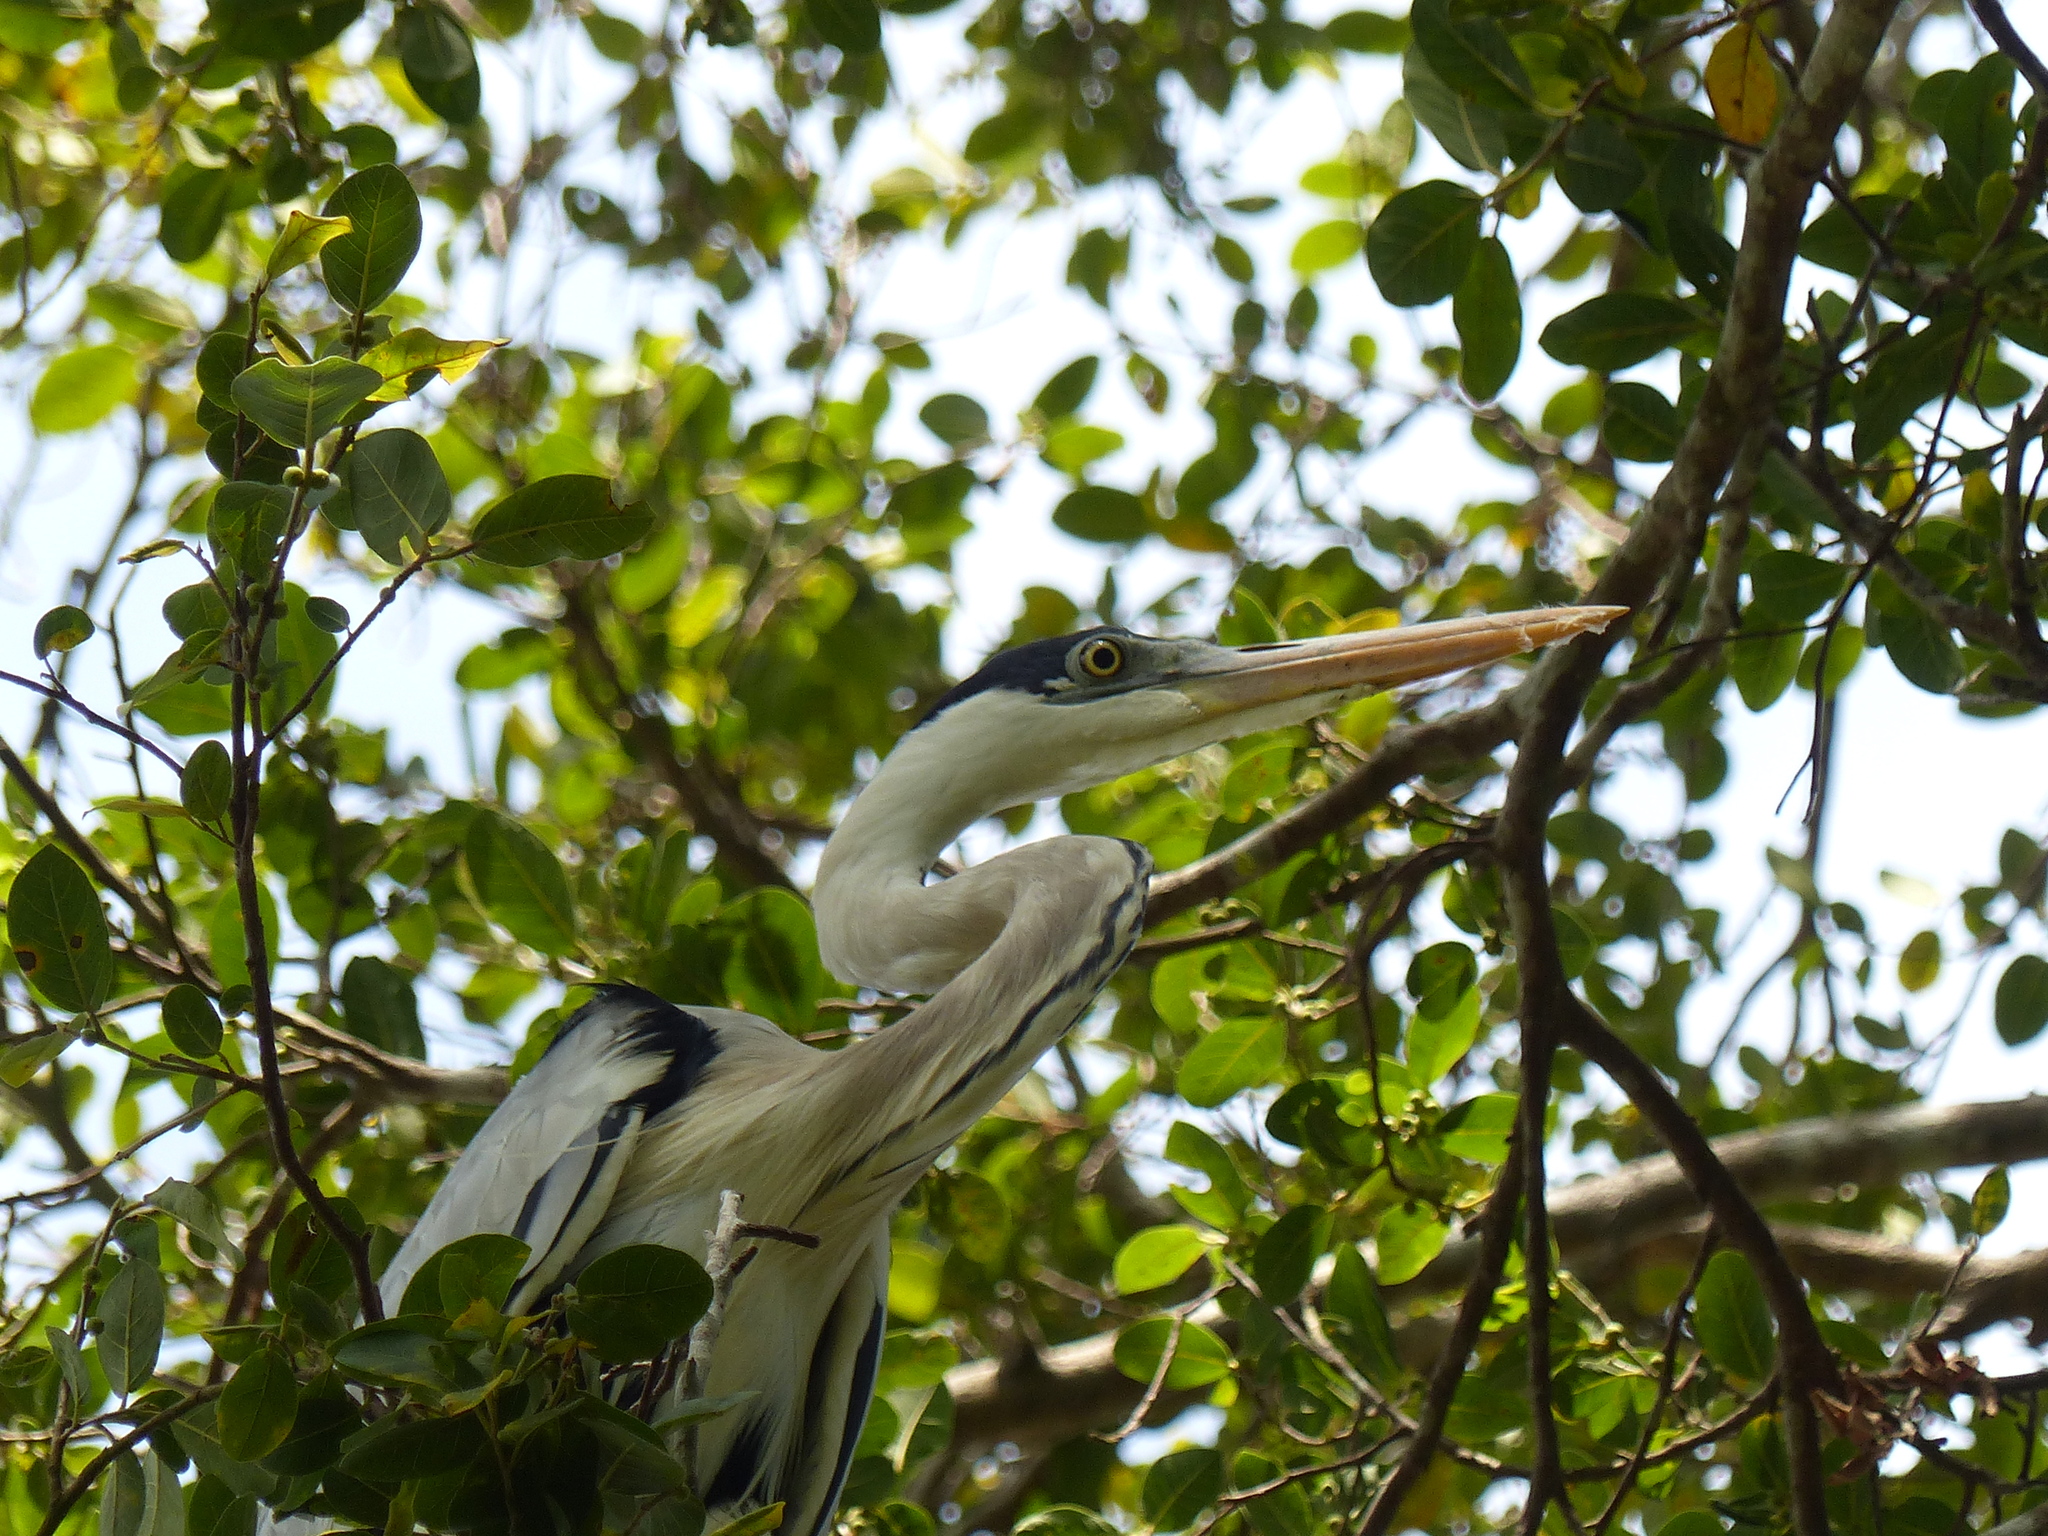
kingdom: Animalia
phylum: Chordata
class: Aves
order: Pelecaniformes
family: Ardeidae
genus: Ardea
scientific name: Ardea cocoi
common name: Cocoi heron
